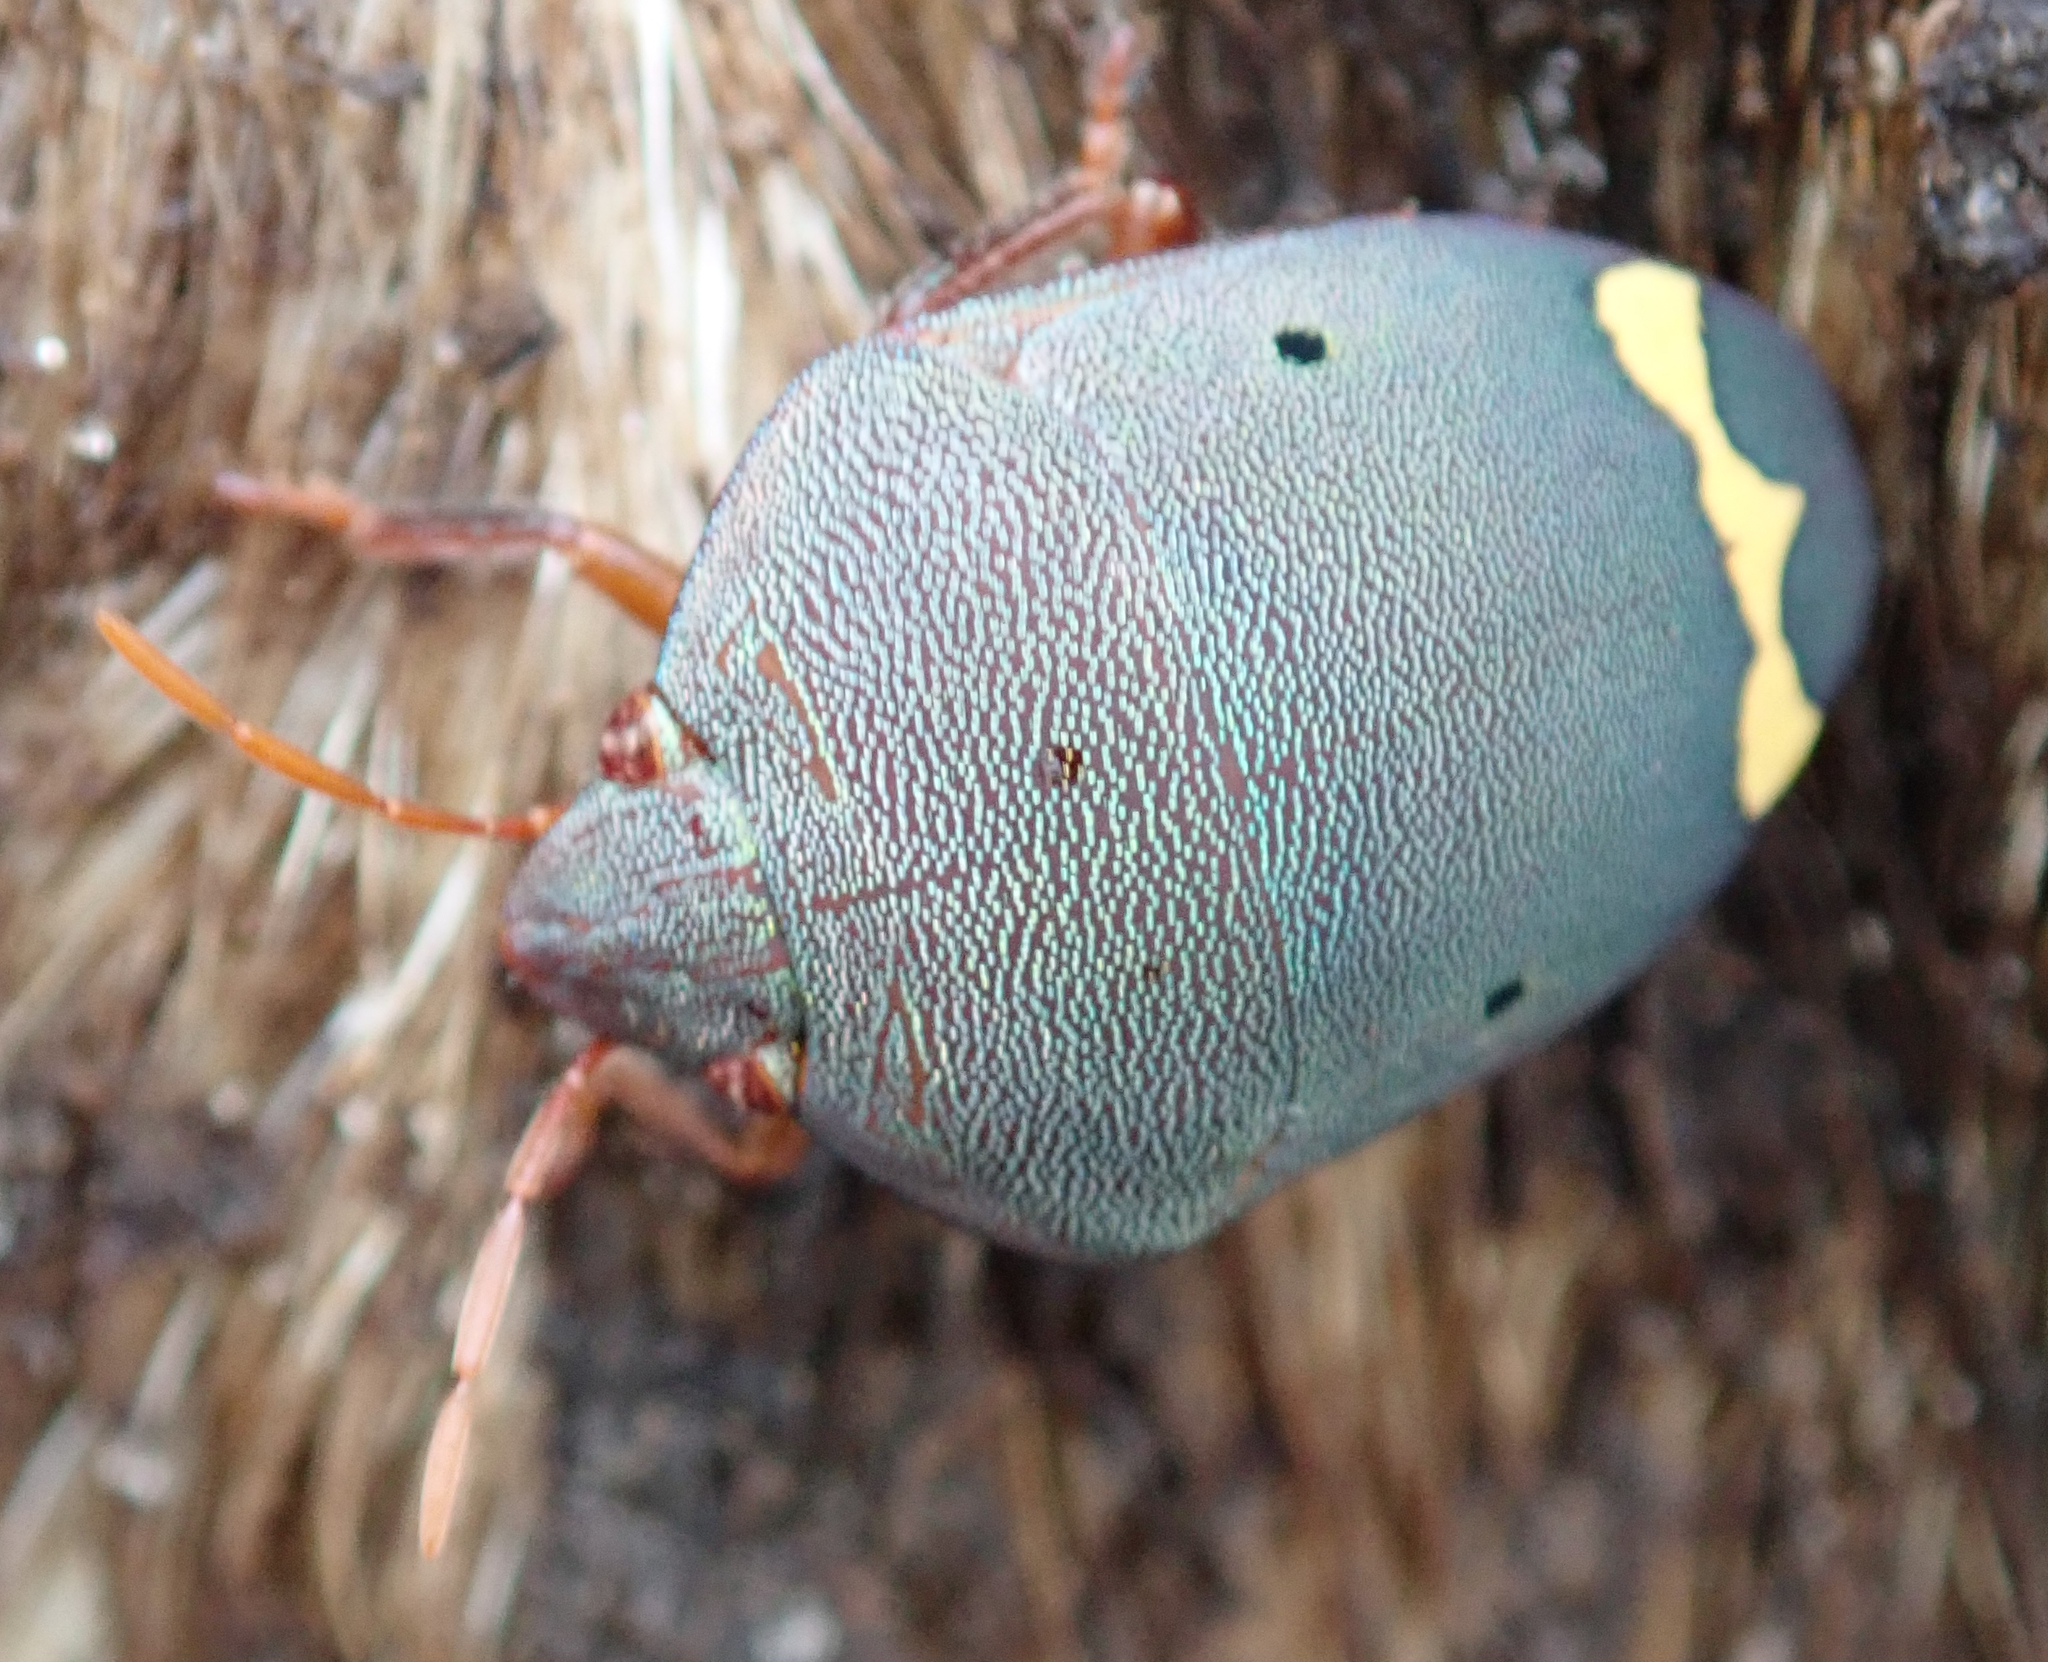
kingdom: Animalia
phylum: Arthropoda
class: Insecta
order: Hemiptera
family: Scutelleridae
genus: Solenosthedium
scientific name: Solenosthedium
